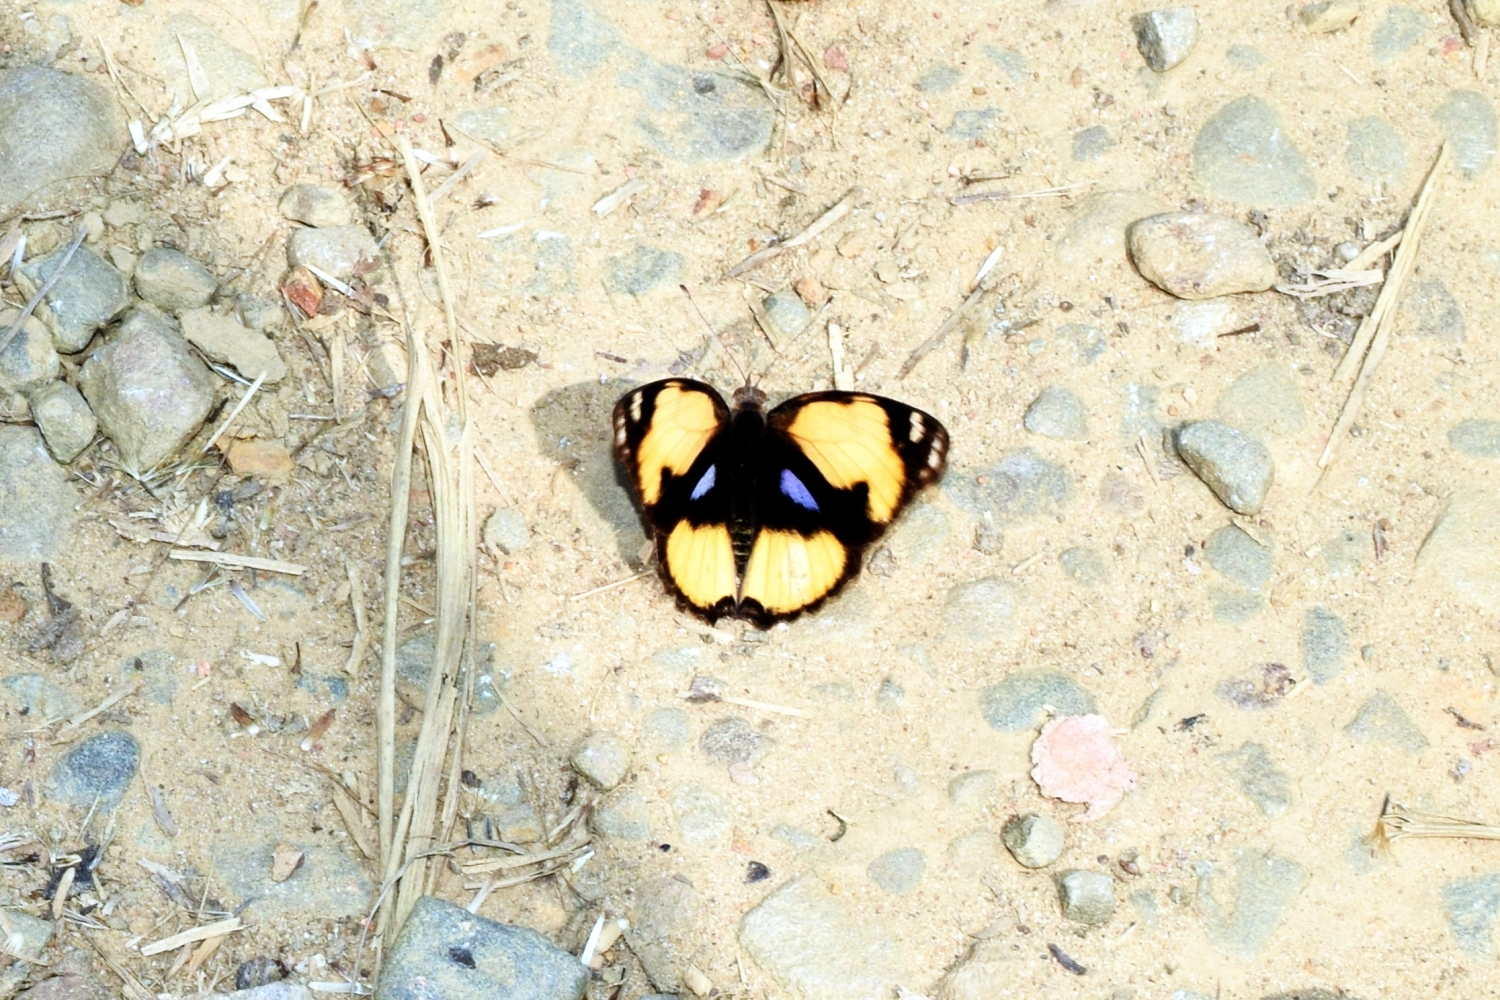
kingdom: Animalia
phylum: Arthropoda
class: Insecta
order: Lepidoptera
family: Nymphalidae
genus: Junonia
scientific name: Junonia hierta
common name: Yellow pansy
